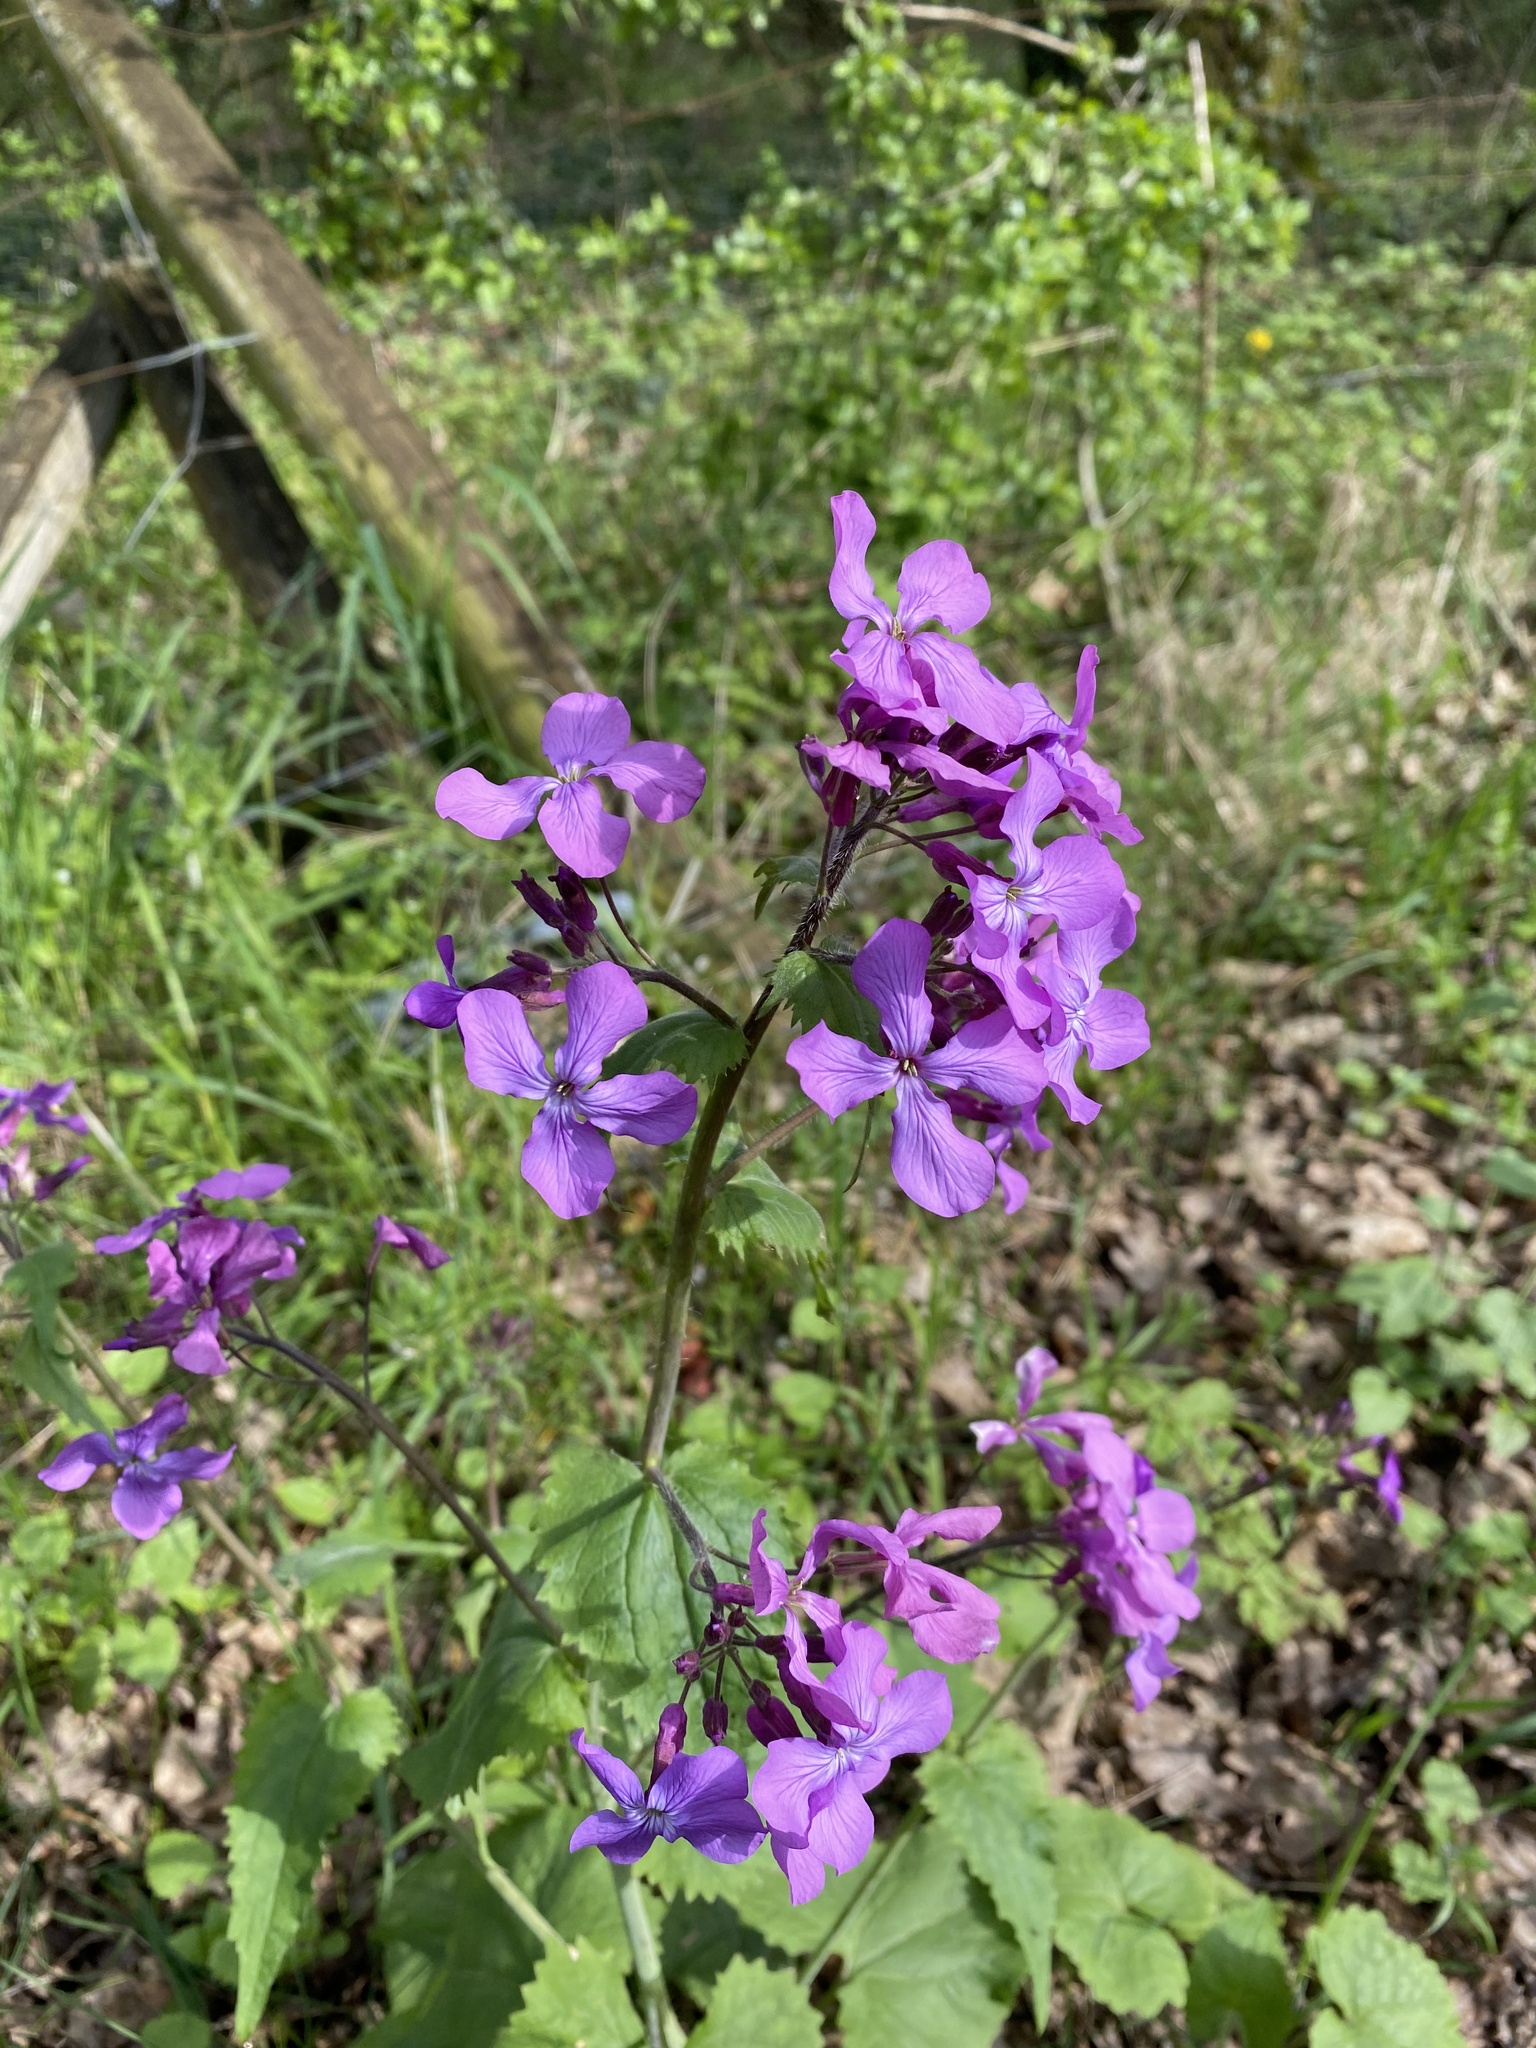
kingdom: Plantae
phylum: Tracheophyta
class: Magnoliopsida
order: Brassicales
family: Brassicaceae
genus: Lunaria
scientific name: Lunaria annua
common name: Honesty
